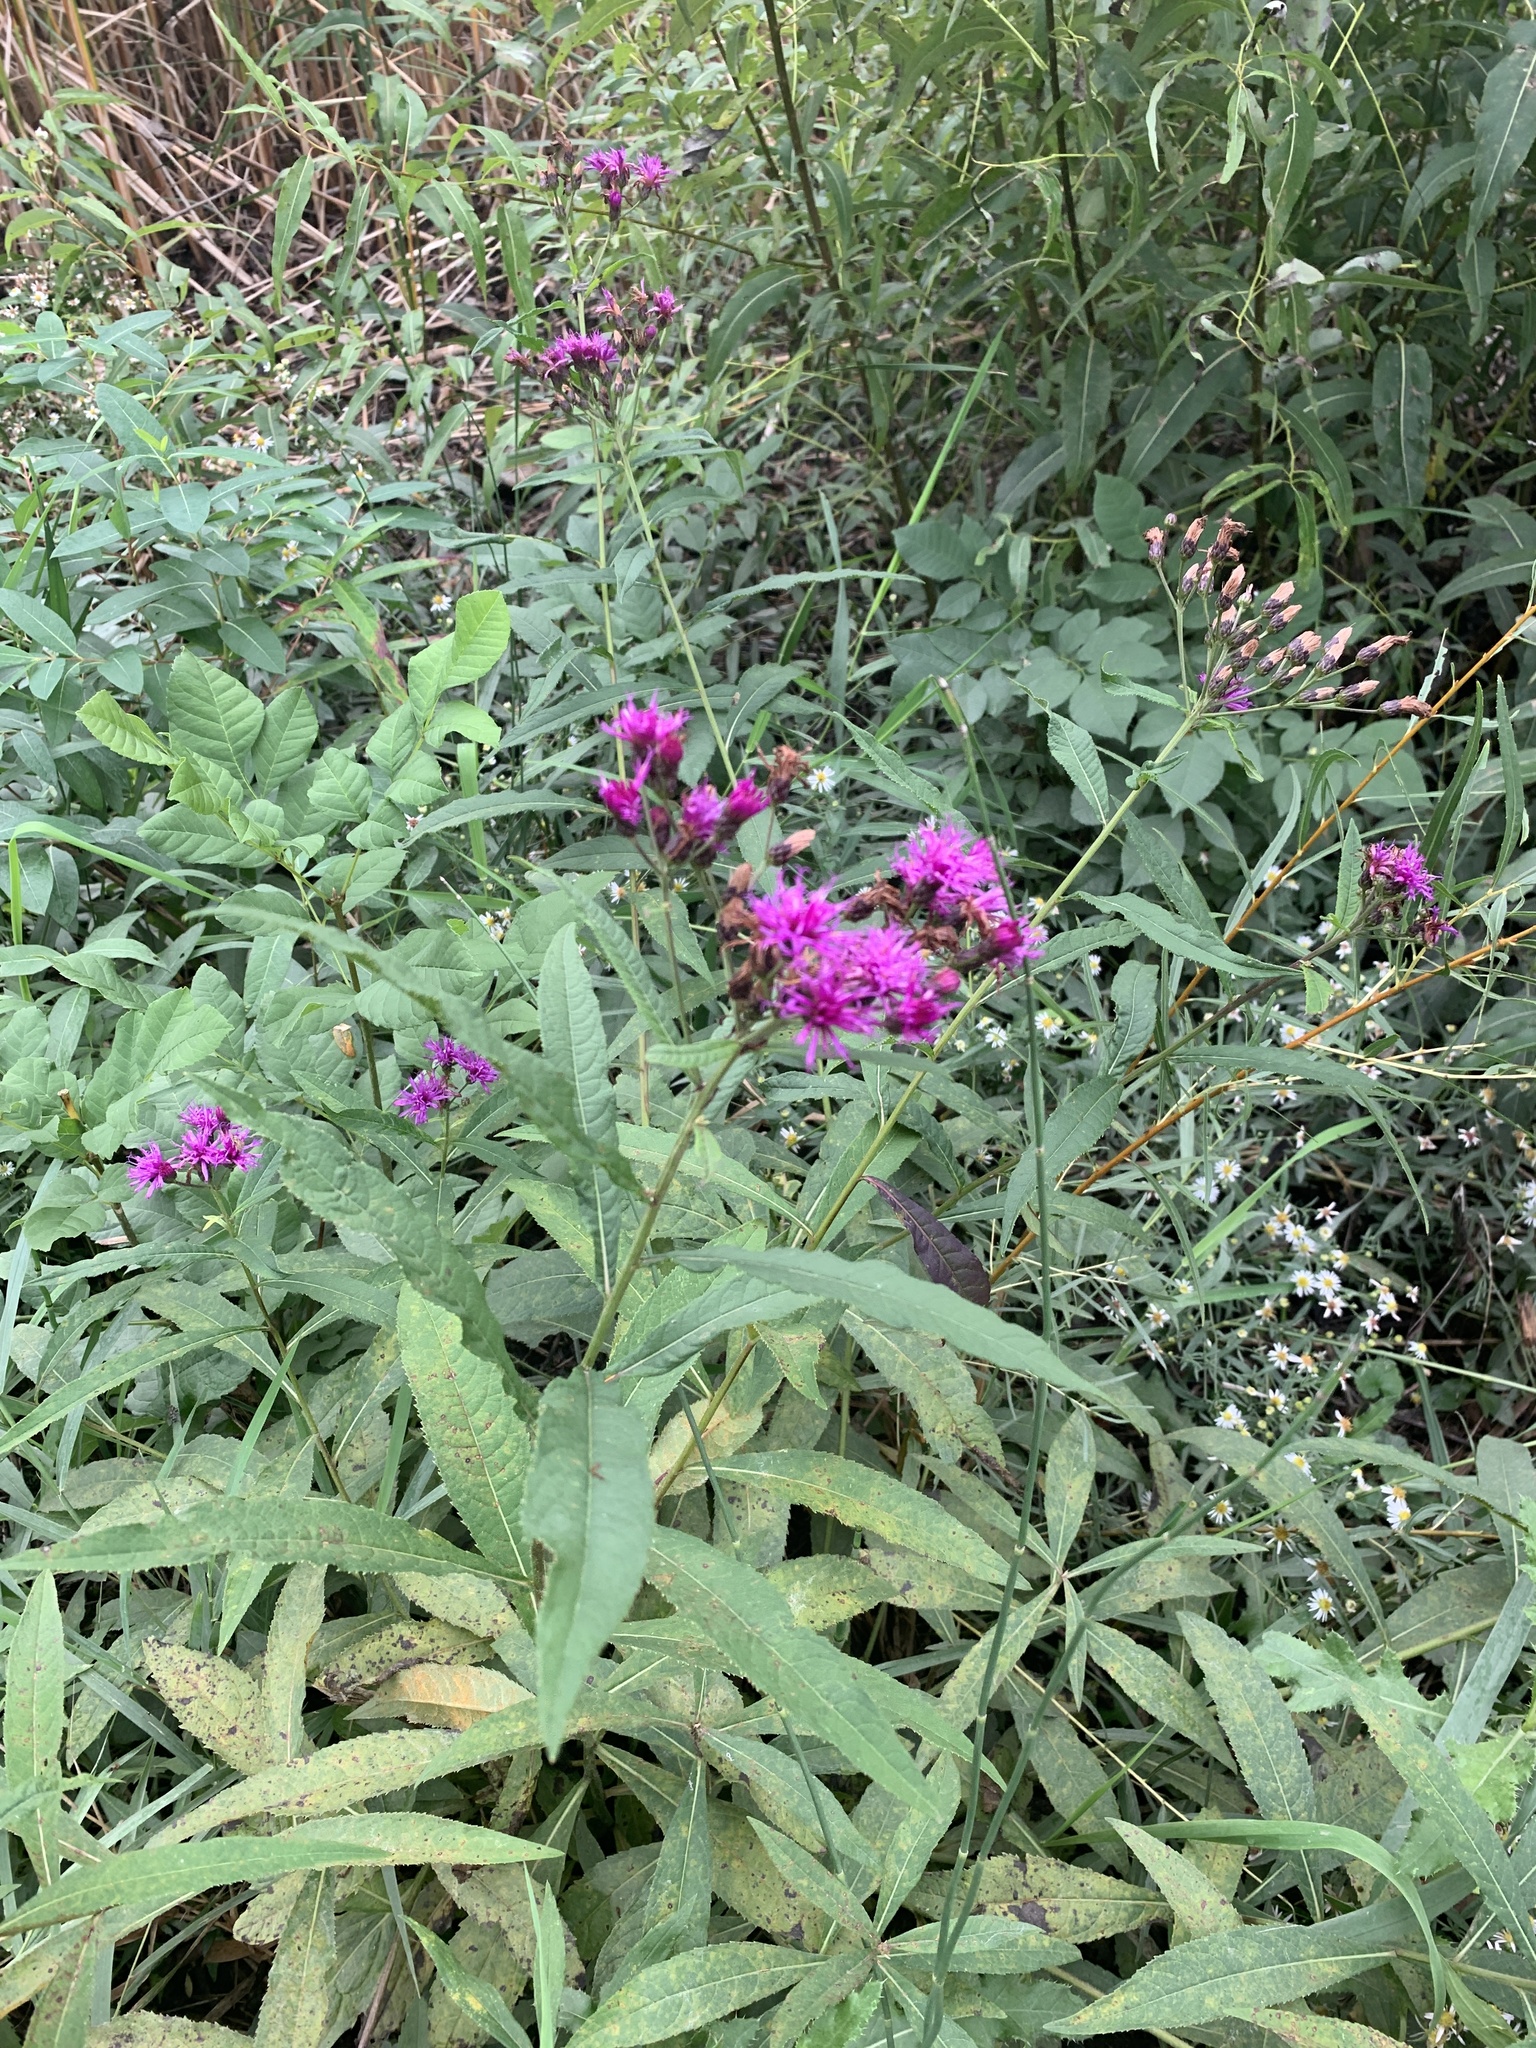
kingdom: Plantae
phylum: Tracheophyta
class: Magnoliopsida
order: Asterales
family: Asteraceae
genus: Vernonia
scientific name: Vernonia gigantea
